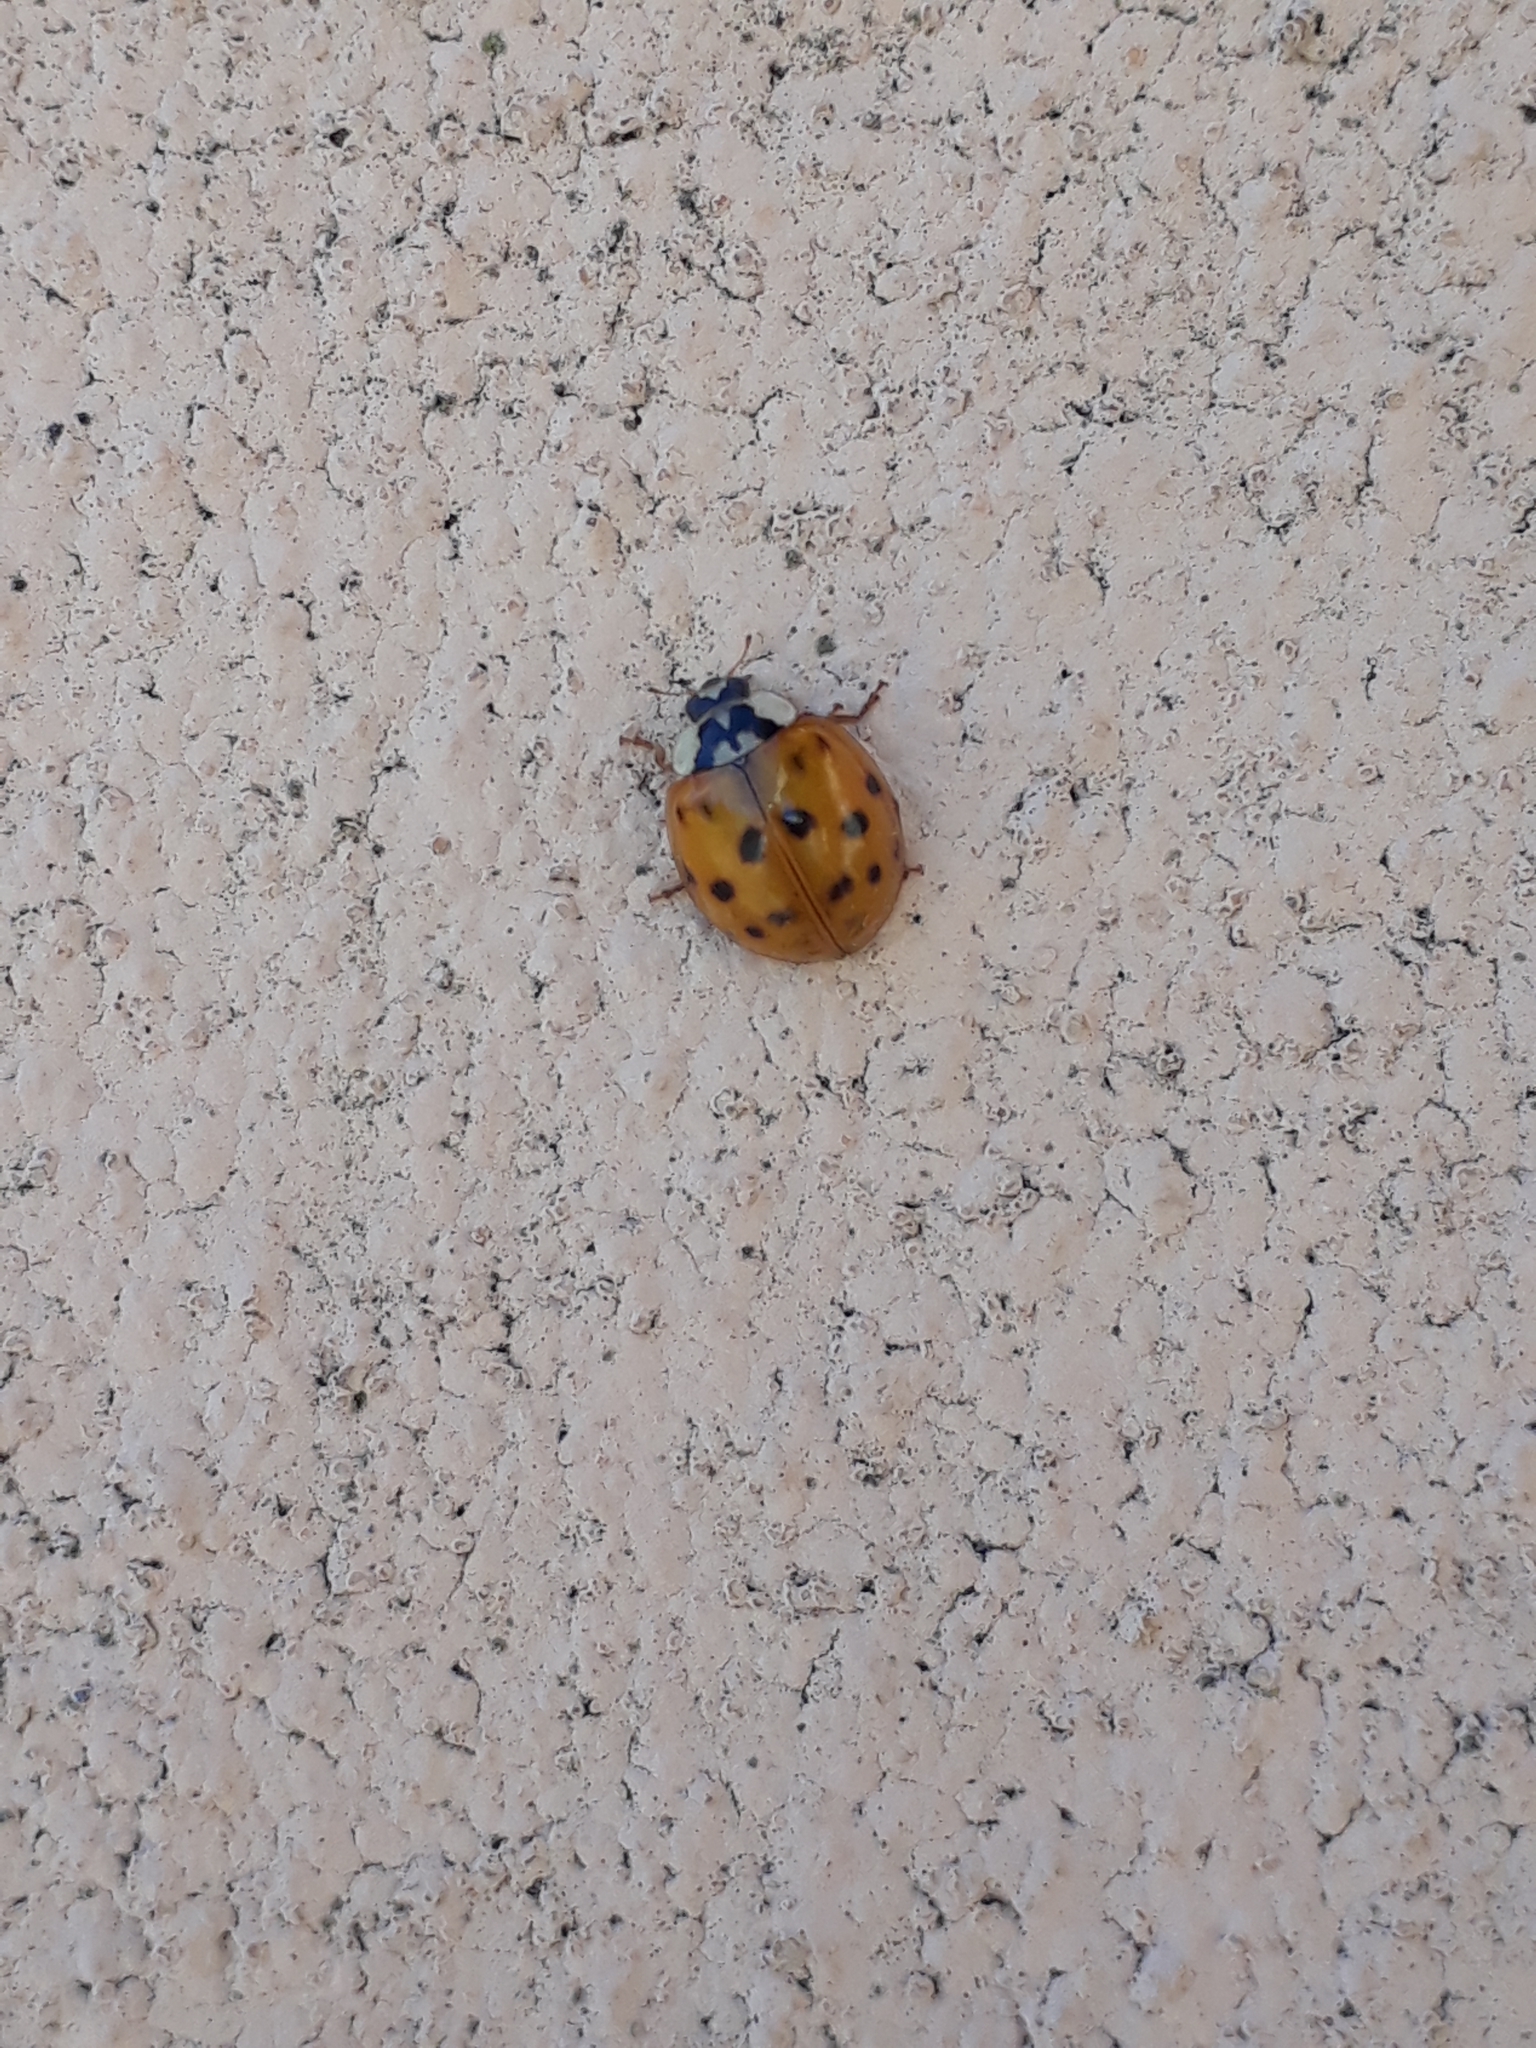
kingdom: Animalia
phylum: Arthropoda
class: Insecta
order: Coleoptera
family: Coccinellidae
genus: Harmonia
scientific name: Harmonia axyridis
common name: Harlequin ladybird
